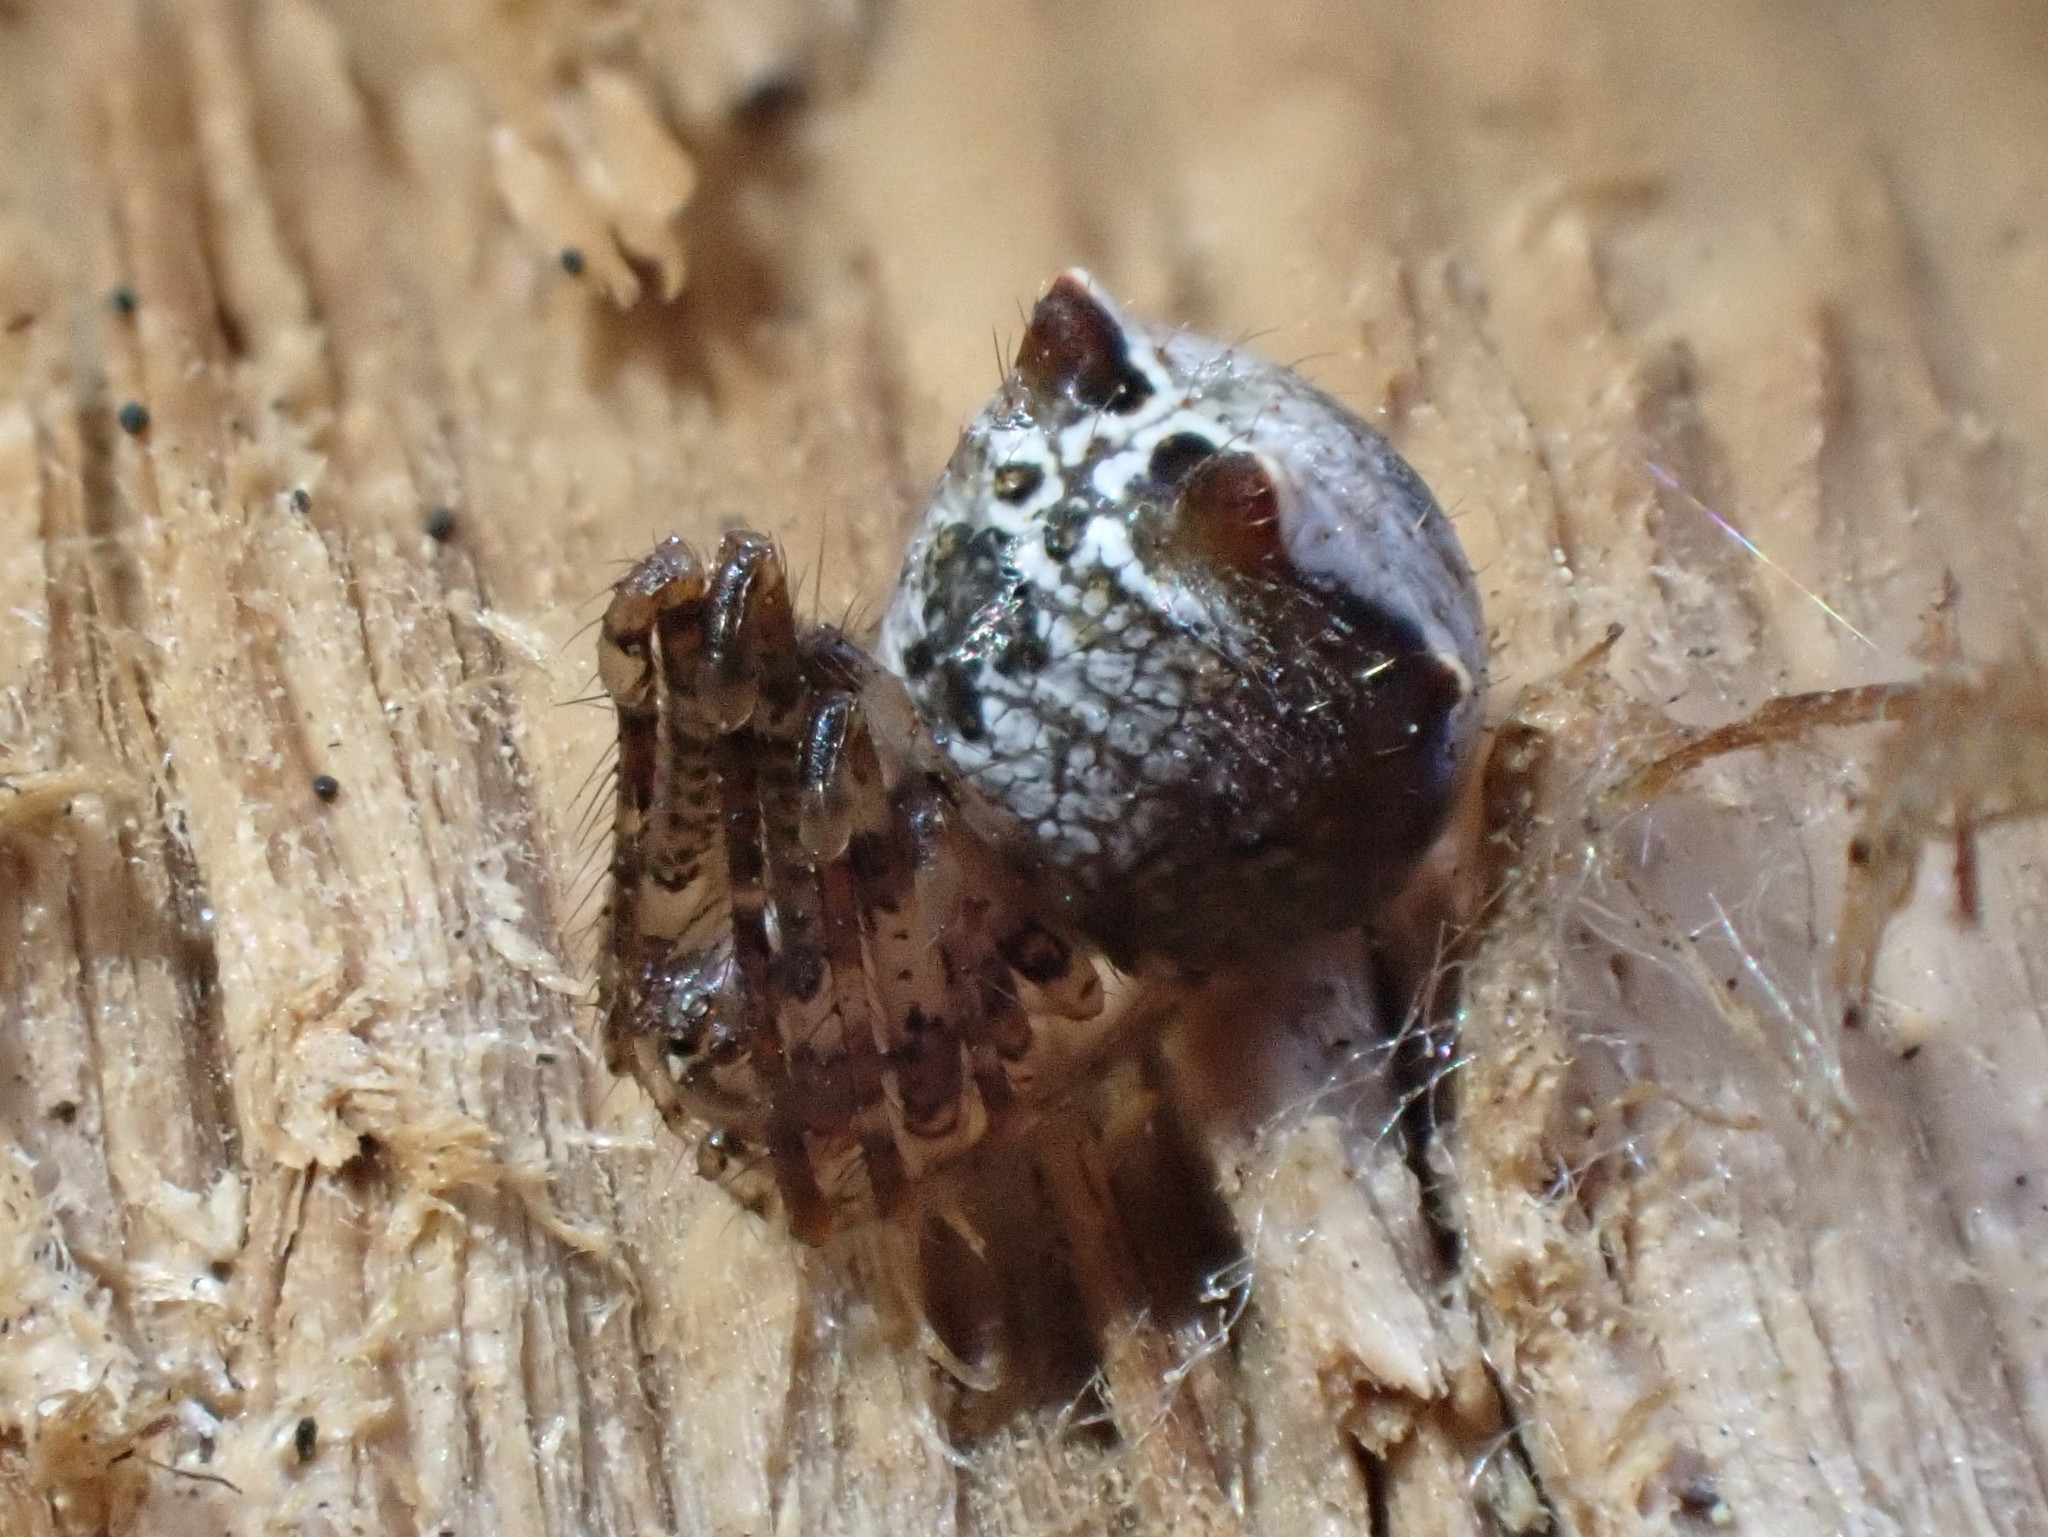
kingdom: Animalia
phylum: Arthropoda
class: Arachnida
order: Araneae
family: Mimetidae
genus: Ero
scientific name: Ero tuberculata
